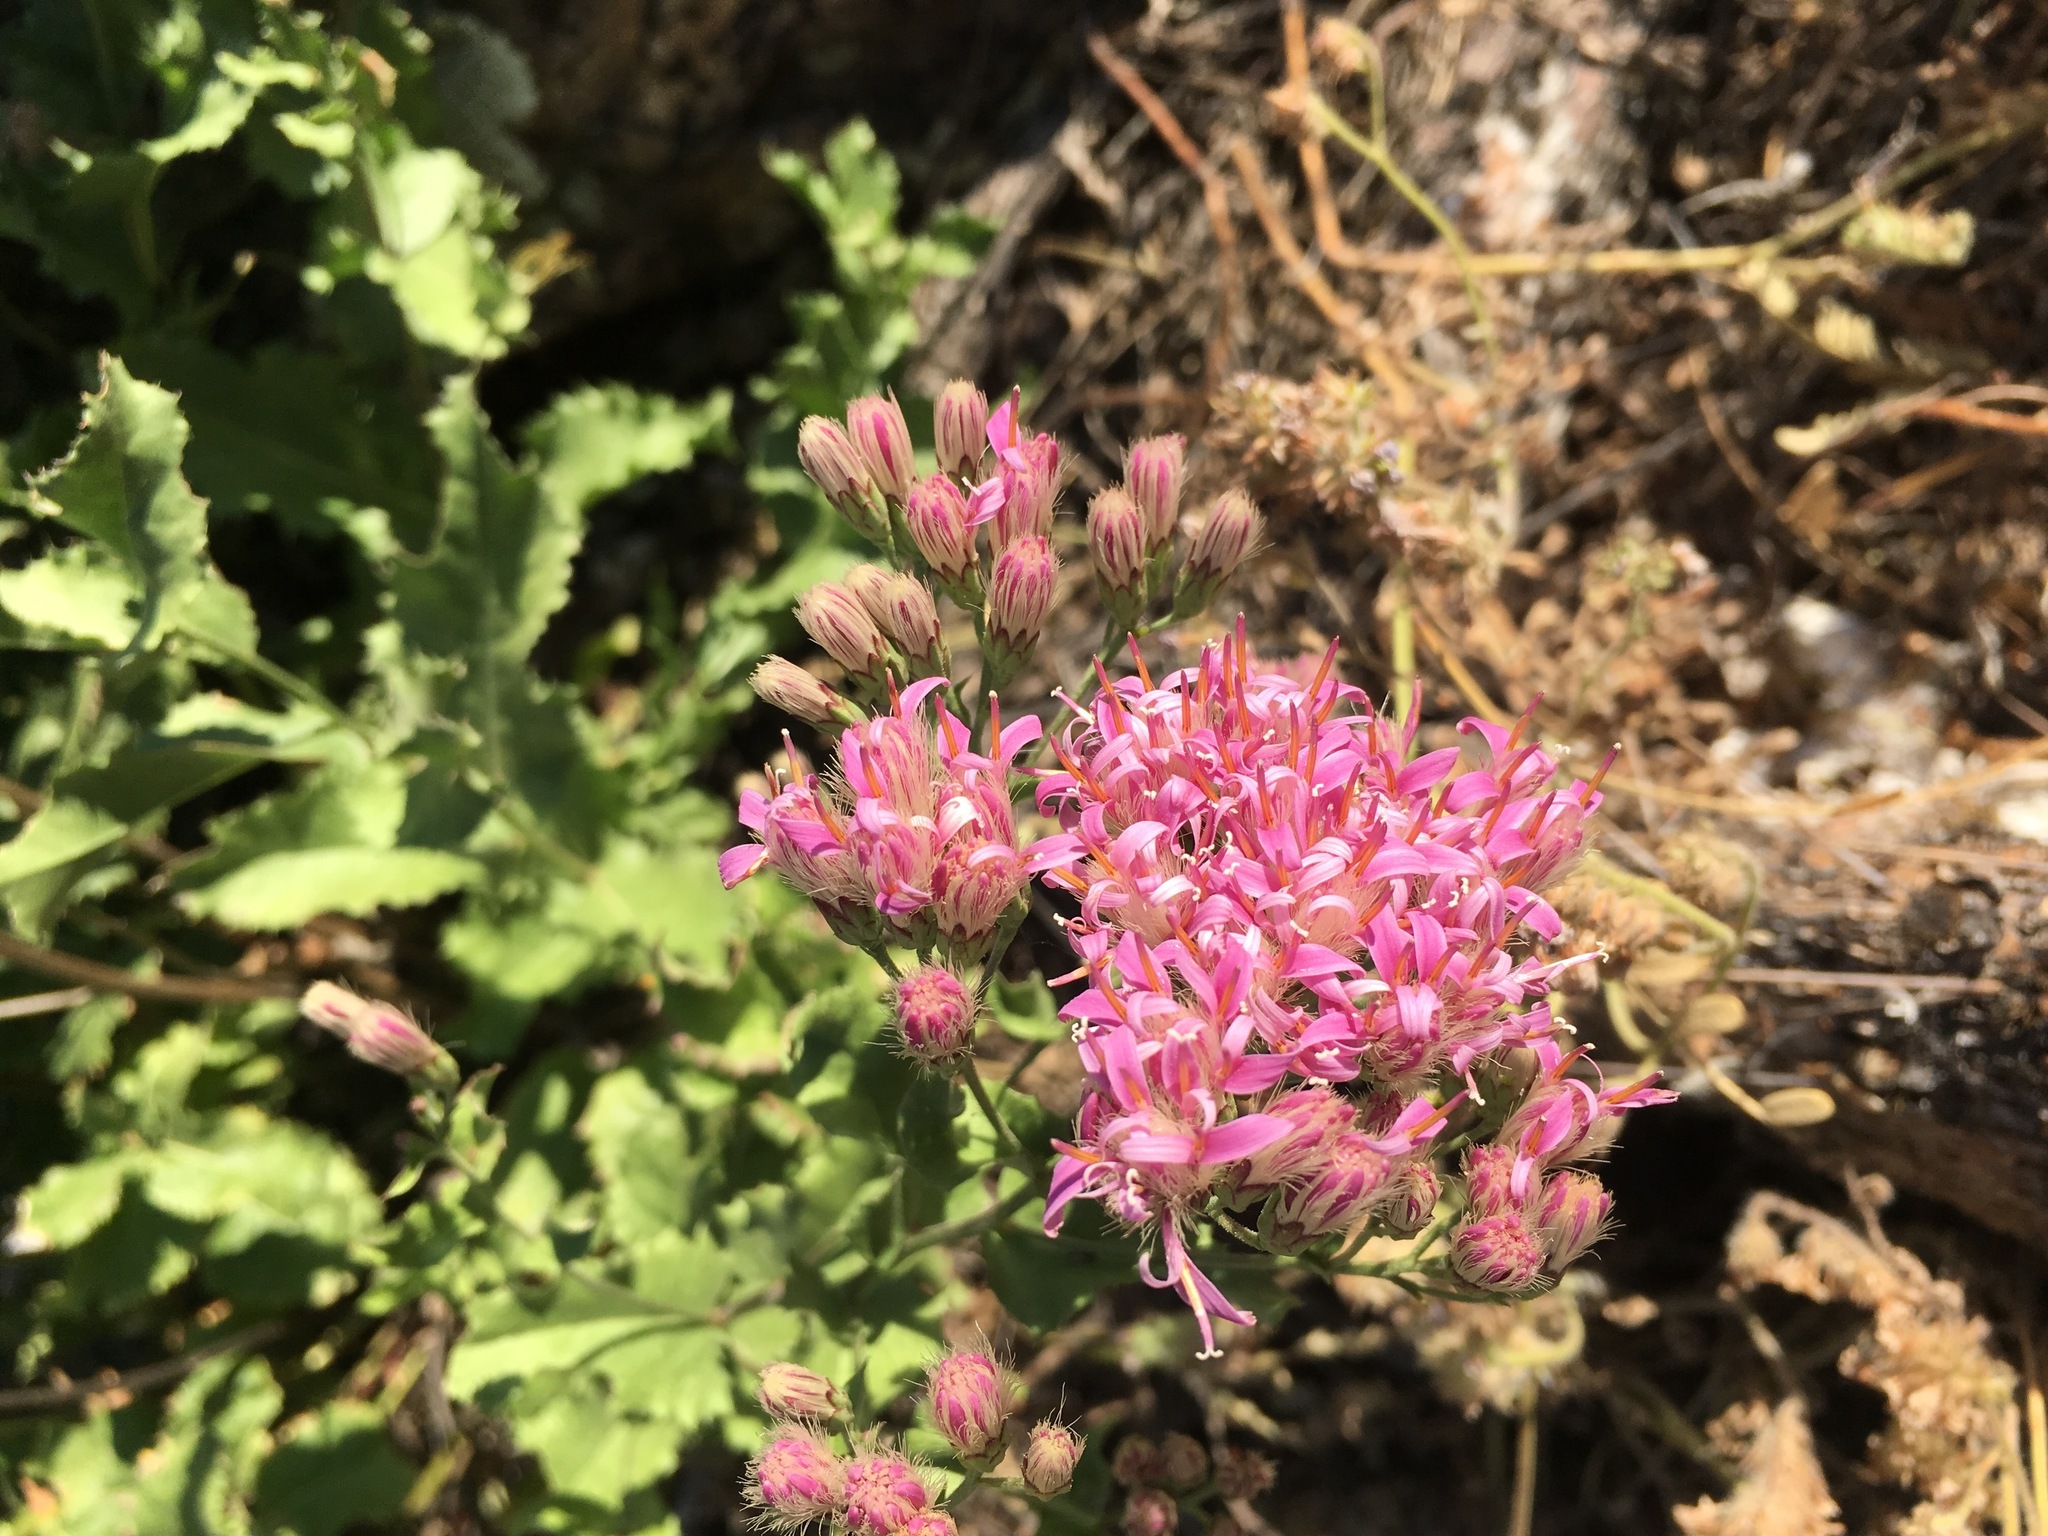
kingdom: Plantae
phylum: Tracheophyta
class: Magnoliopsida
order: Asterales
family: Asteraceae
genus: Acourtia
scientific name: Acourtia wrightii
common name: Brownfoot
